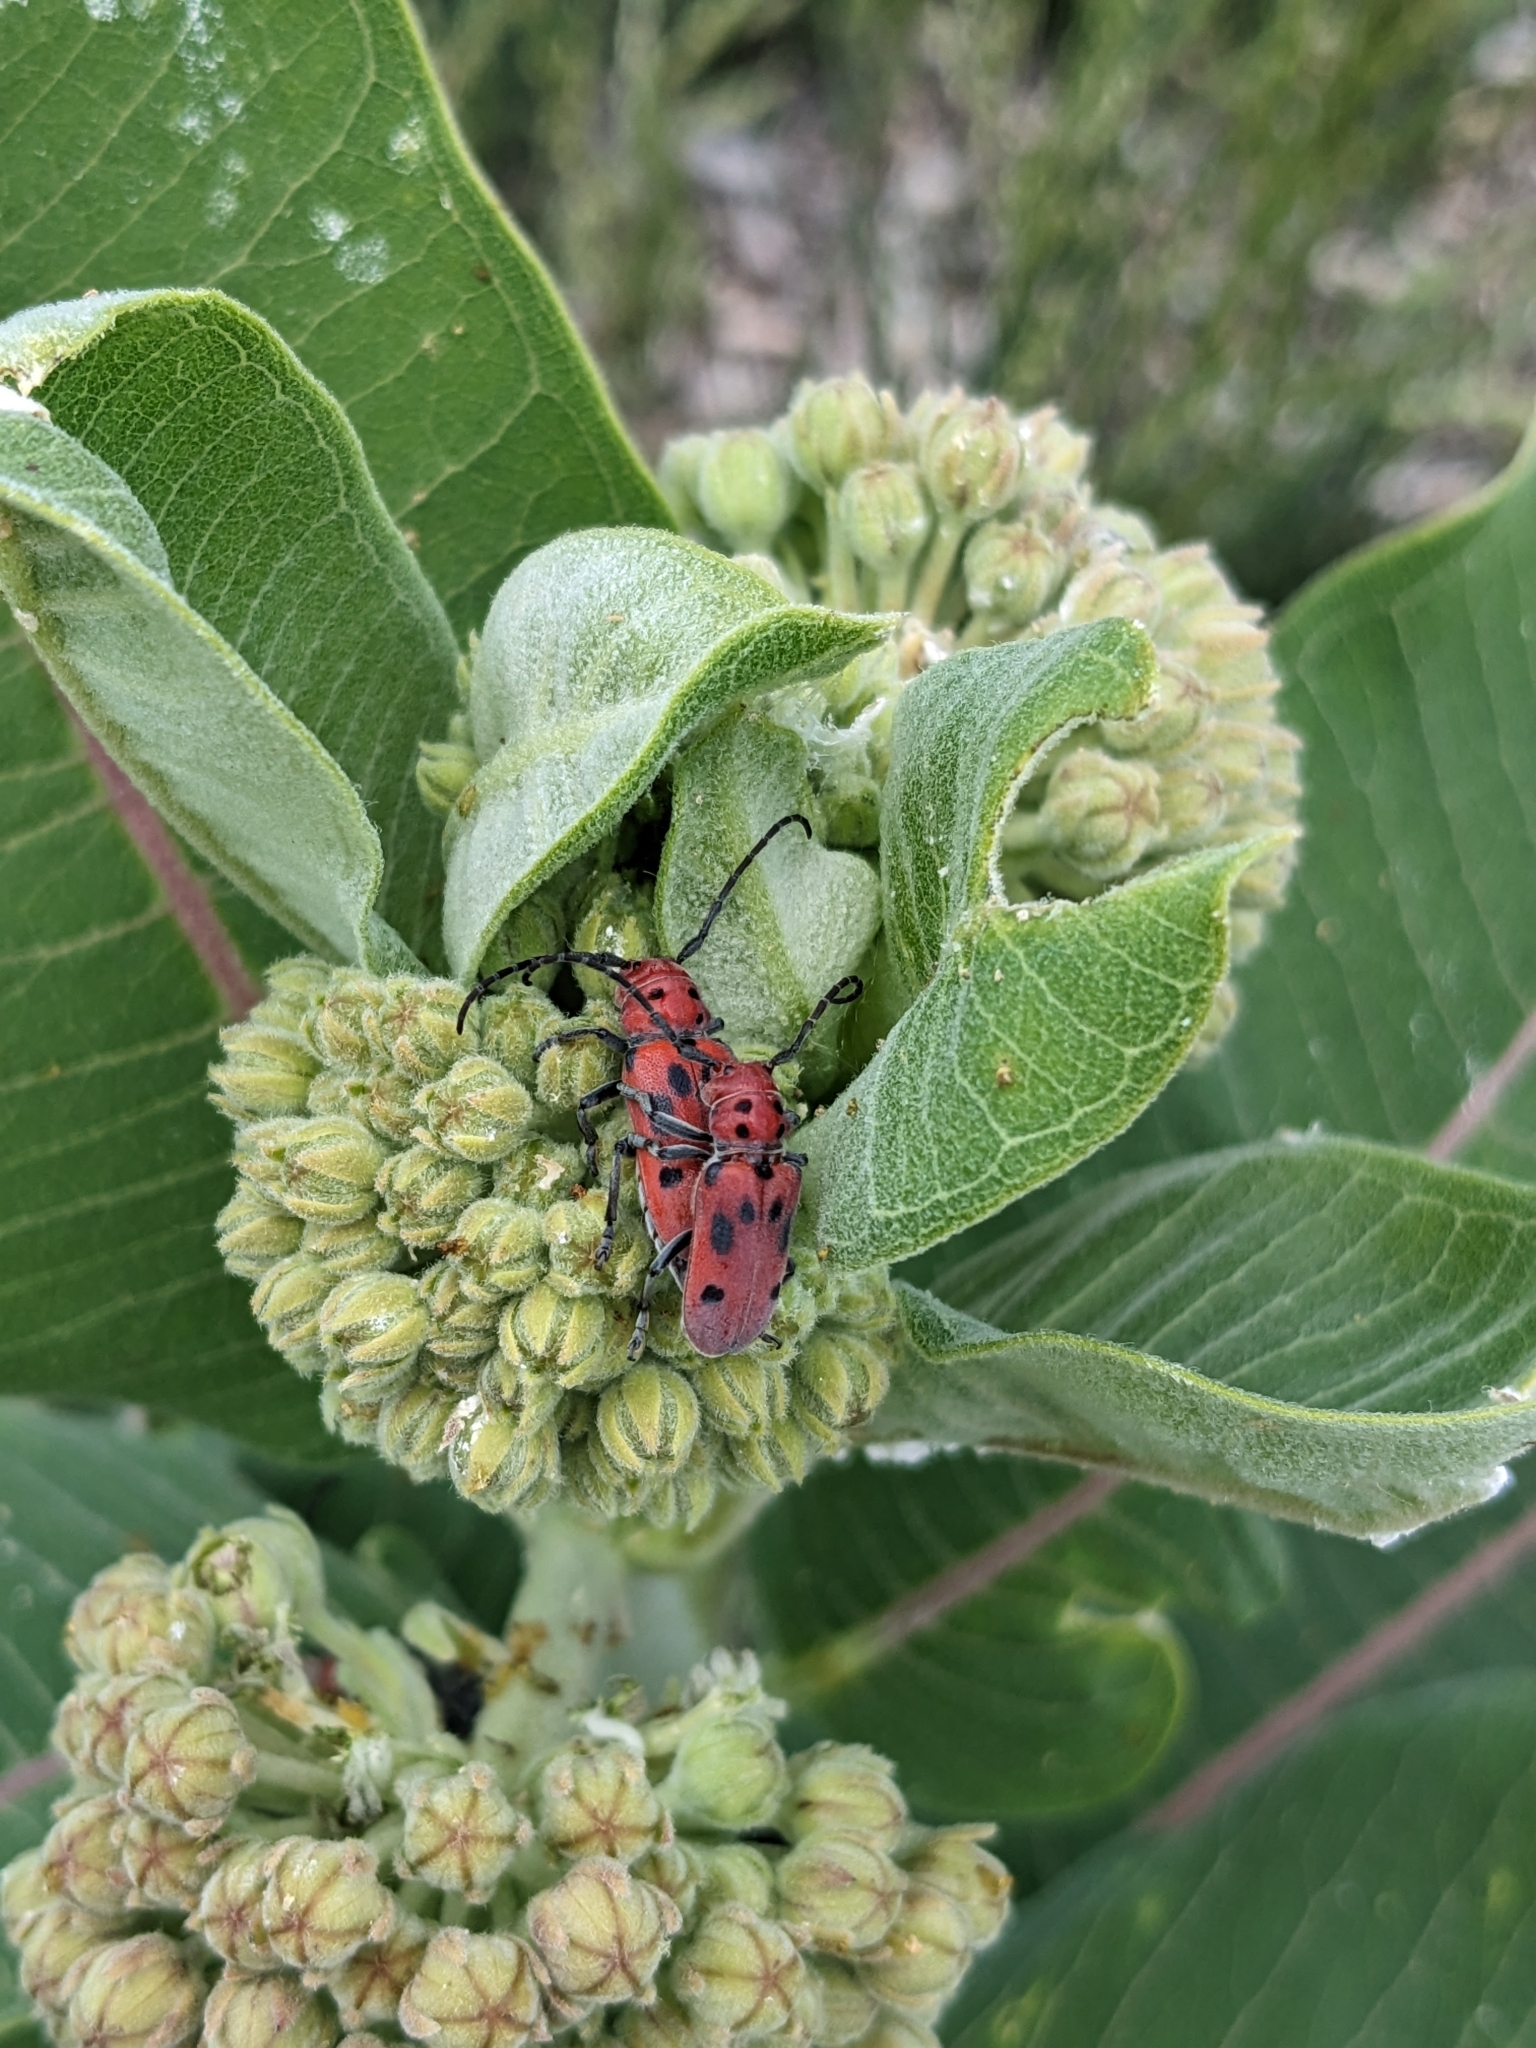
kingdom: Animalia
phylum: Arthropoda
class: Insecta
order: Coleoptera
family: Cerambycidae
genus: Tetraopes
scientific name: Tetraopes tetrophthalmus
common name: Red milkweed beetle
